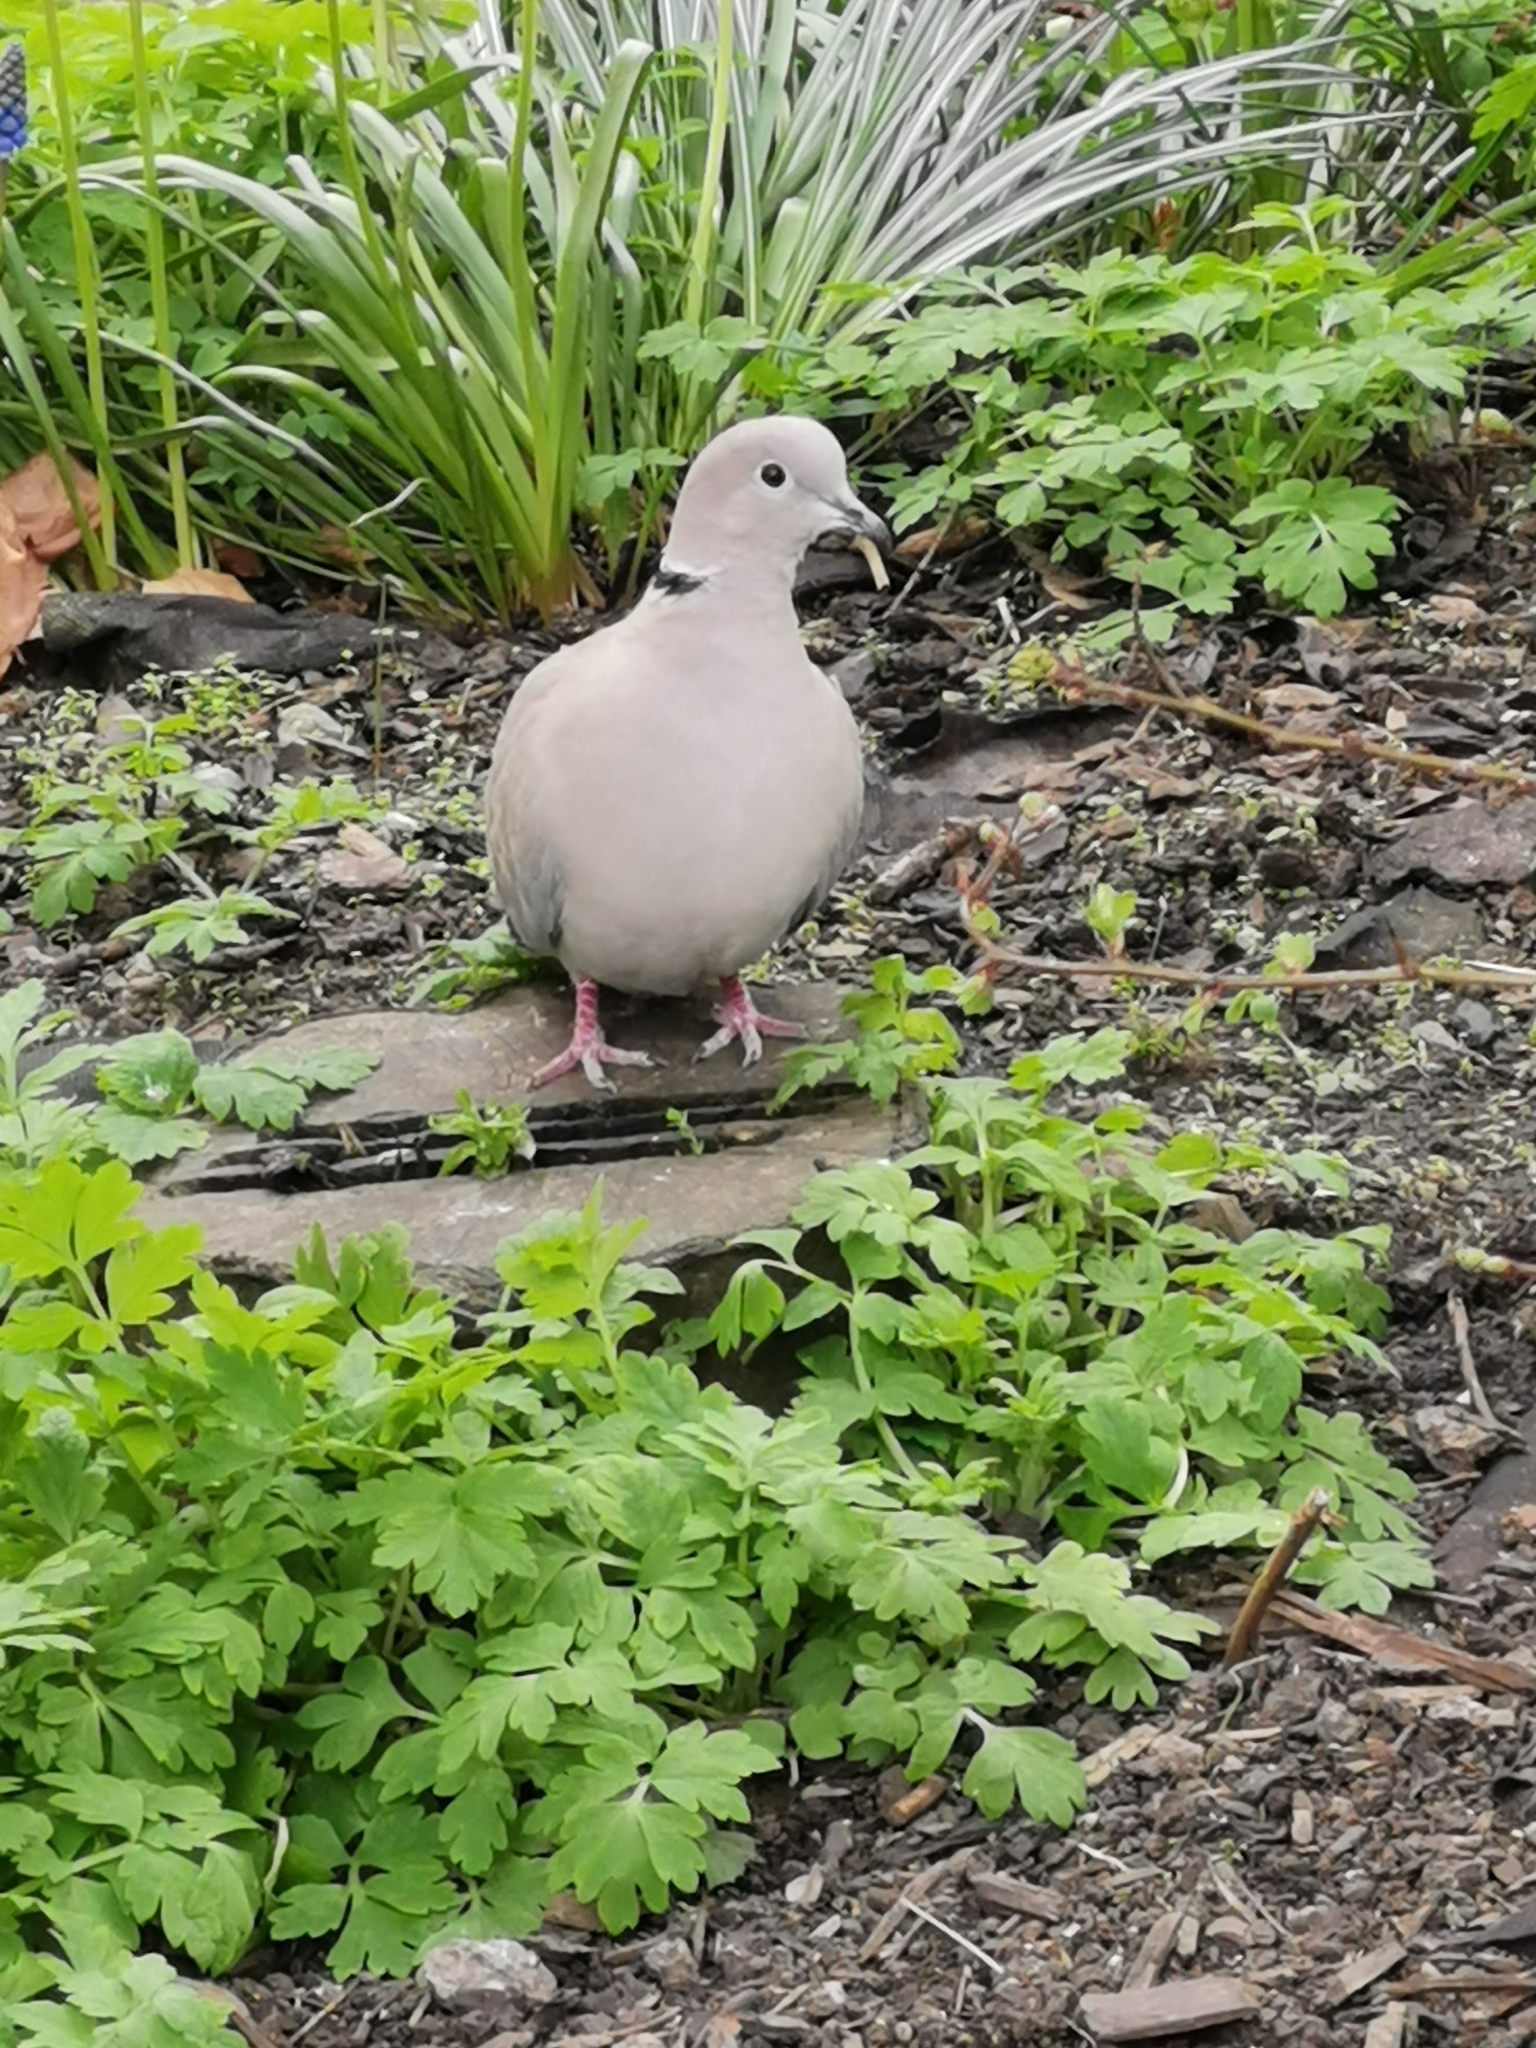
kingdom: Animalia
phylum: Chordata
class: Aves
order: Columbiformes
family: Columbidae
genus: Streptopelia
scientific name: Streptopelia decaocto
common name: Eurasian collared dove
